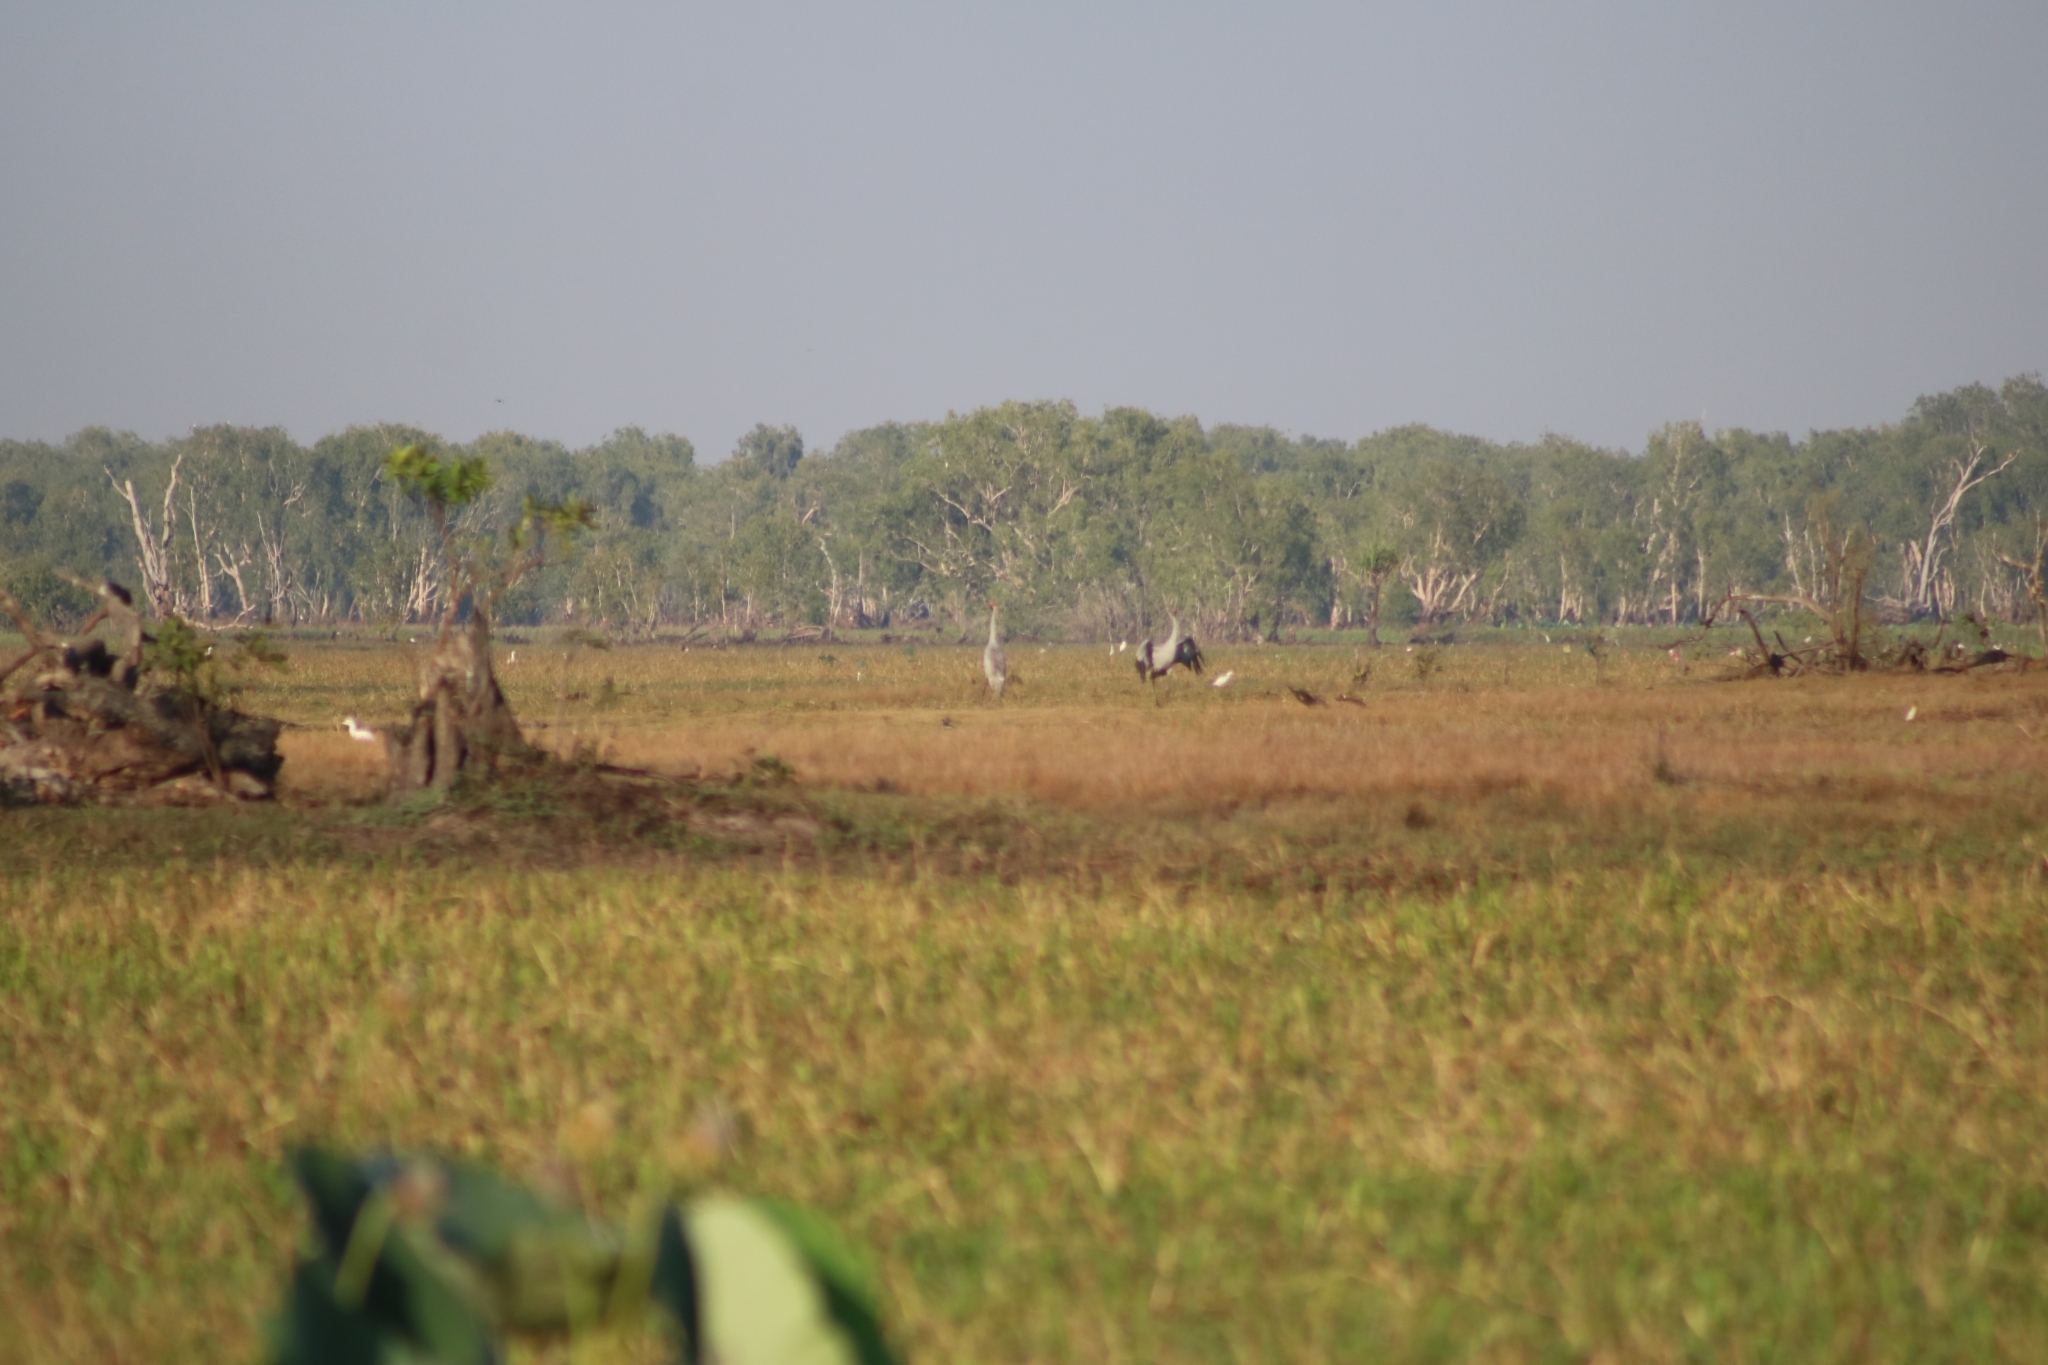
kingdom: Animalia
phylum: Chordata
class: Aves
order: Gruiformes
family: Gruidae
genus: Grus
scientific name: Grus rubicunda
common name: Brolga
